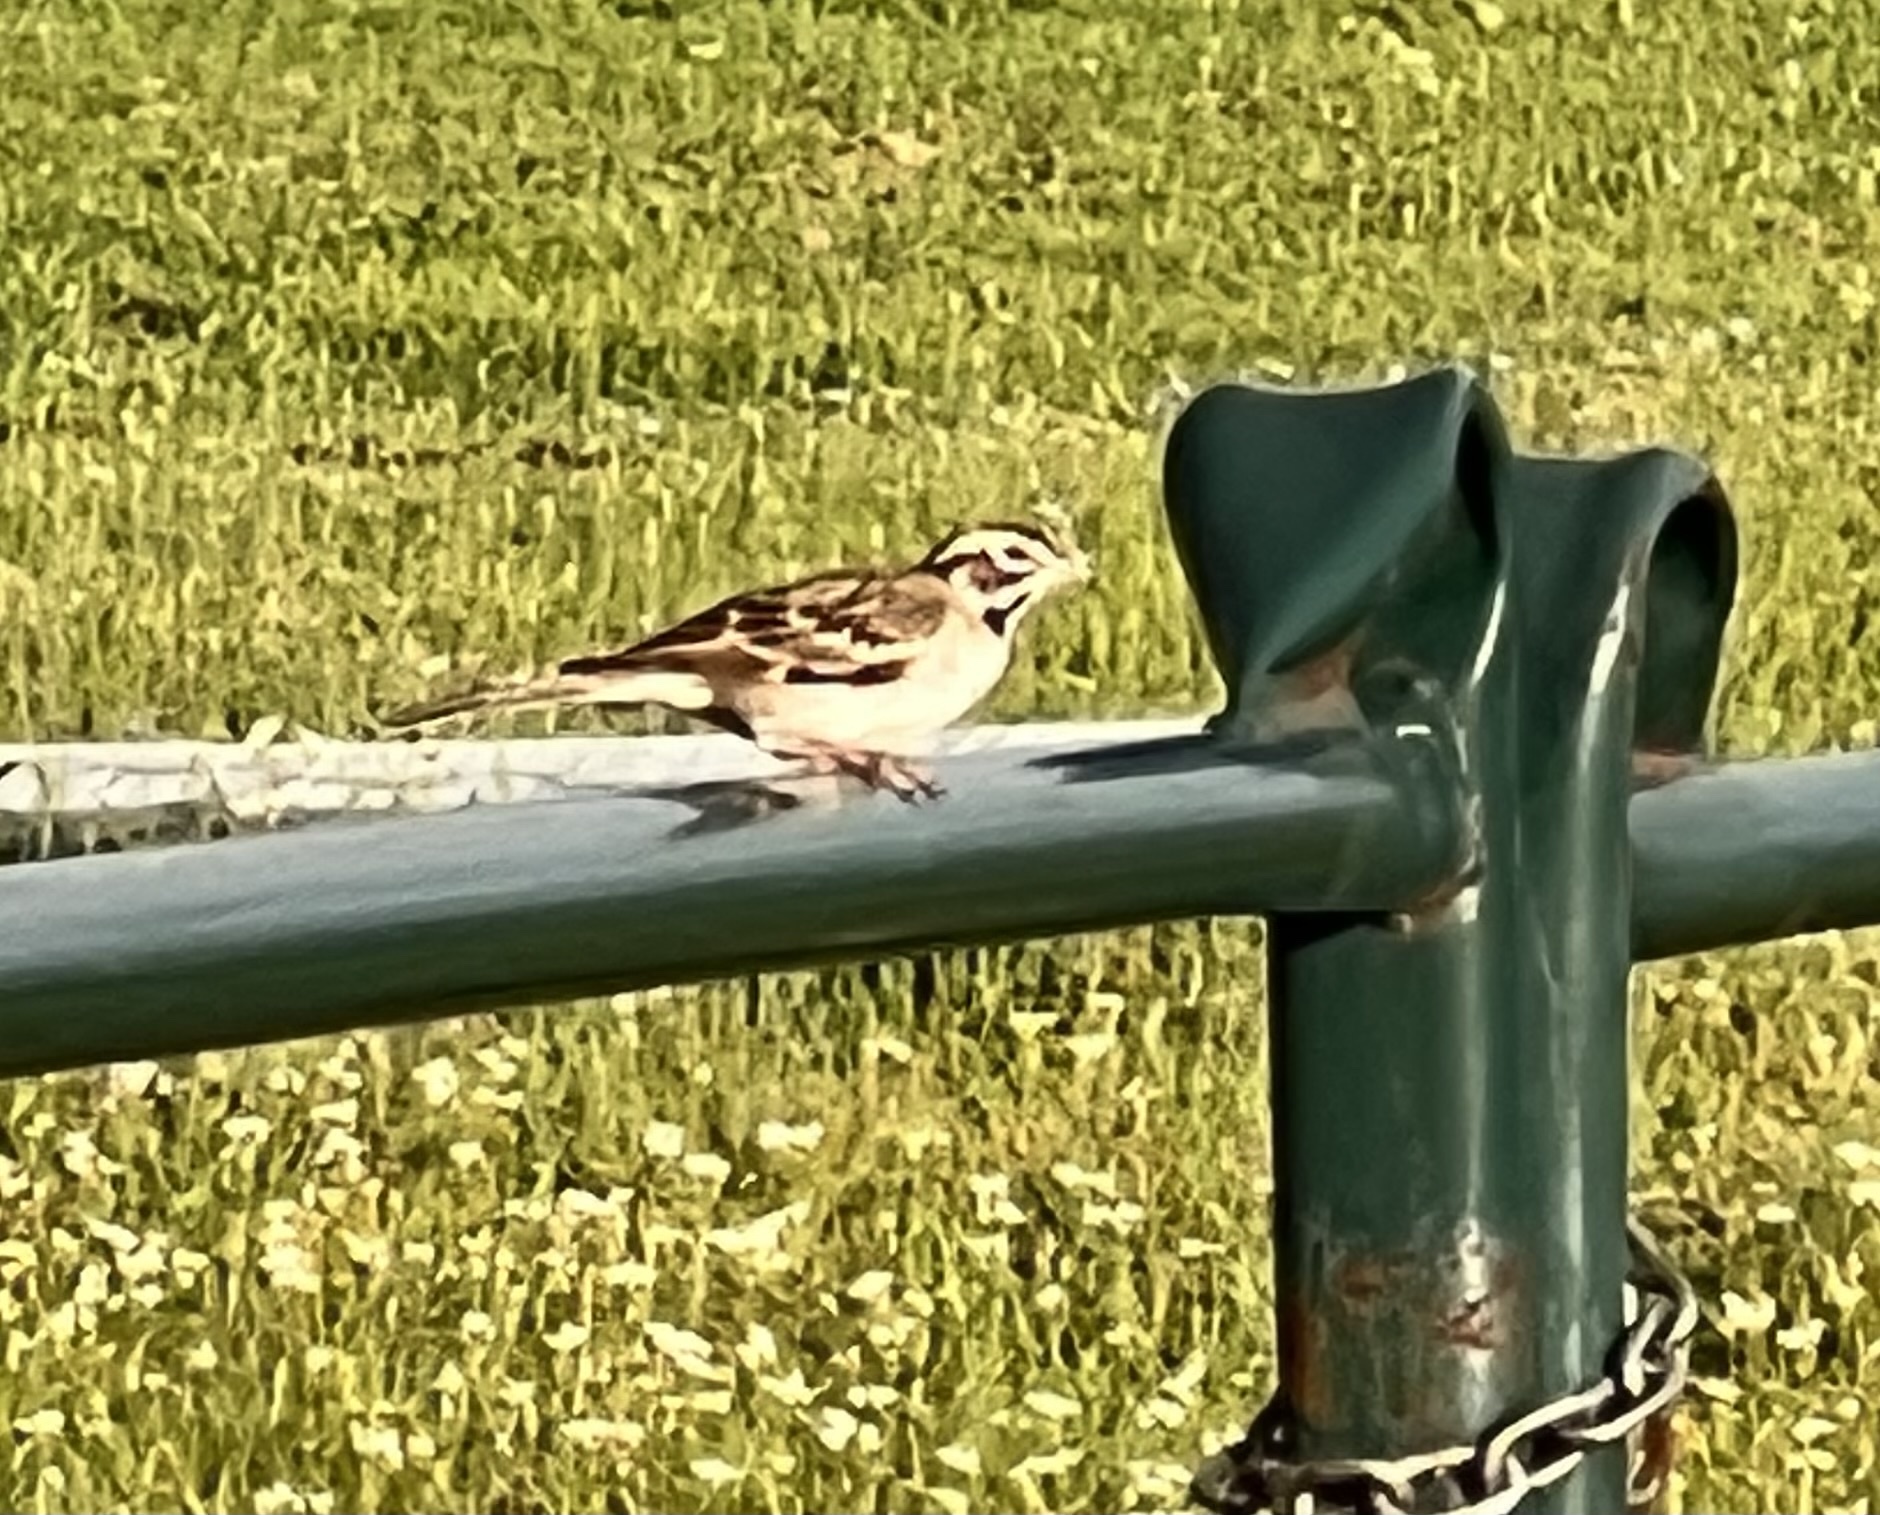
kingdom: Animalia
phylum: Chordata
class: Aves
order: Passeriformes
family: Passerellidae
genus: Chondestes
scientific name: Chondestes grammacus
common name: Lark sparrow
